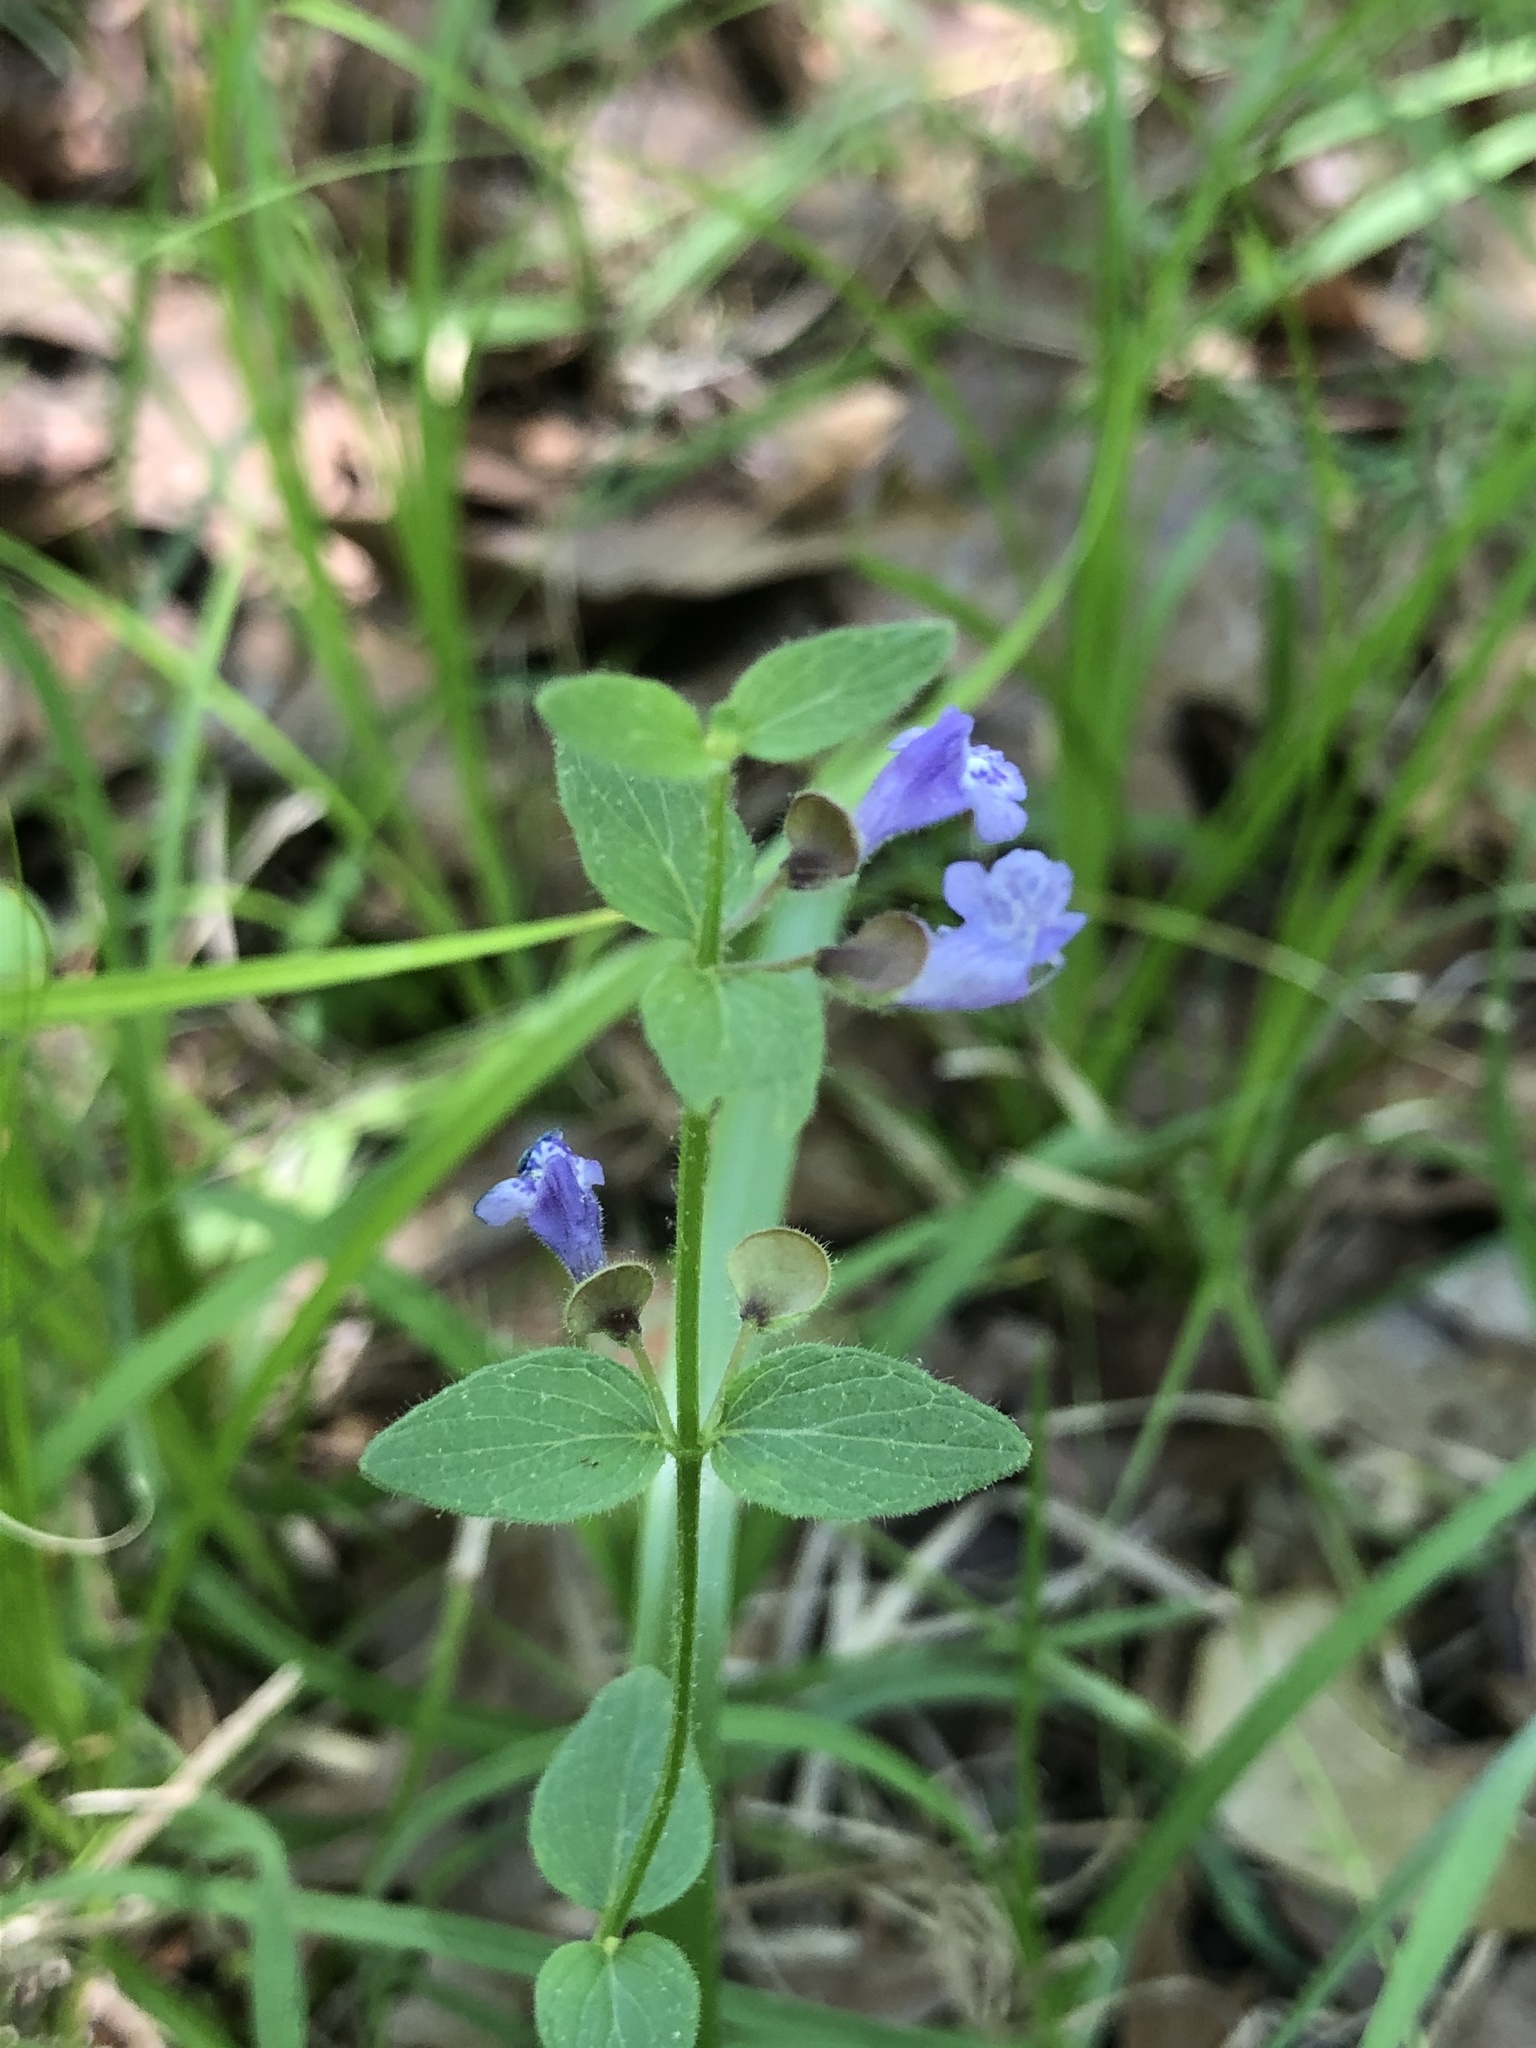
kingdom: Plantae
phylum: Tracheophyta
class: Magnoliopsida
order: Lamiales
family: Lamiaceae
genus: Scutellaria
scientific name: Scutellaria parvula
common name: Little scullcap
